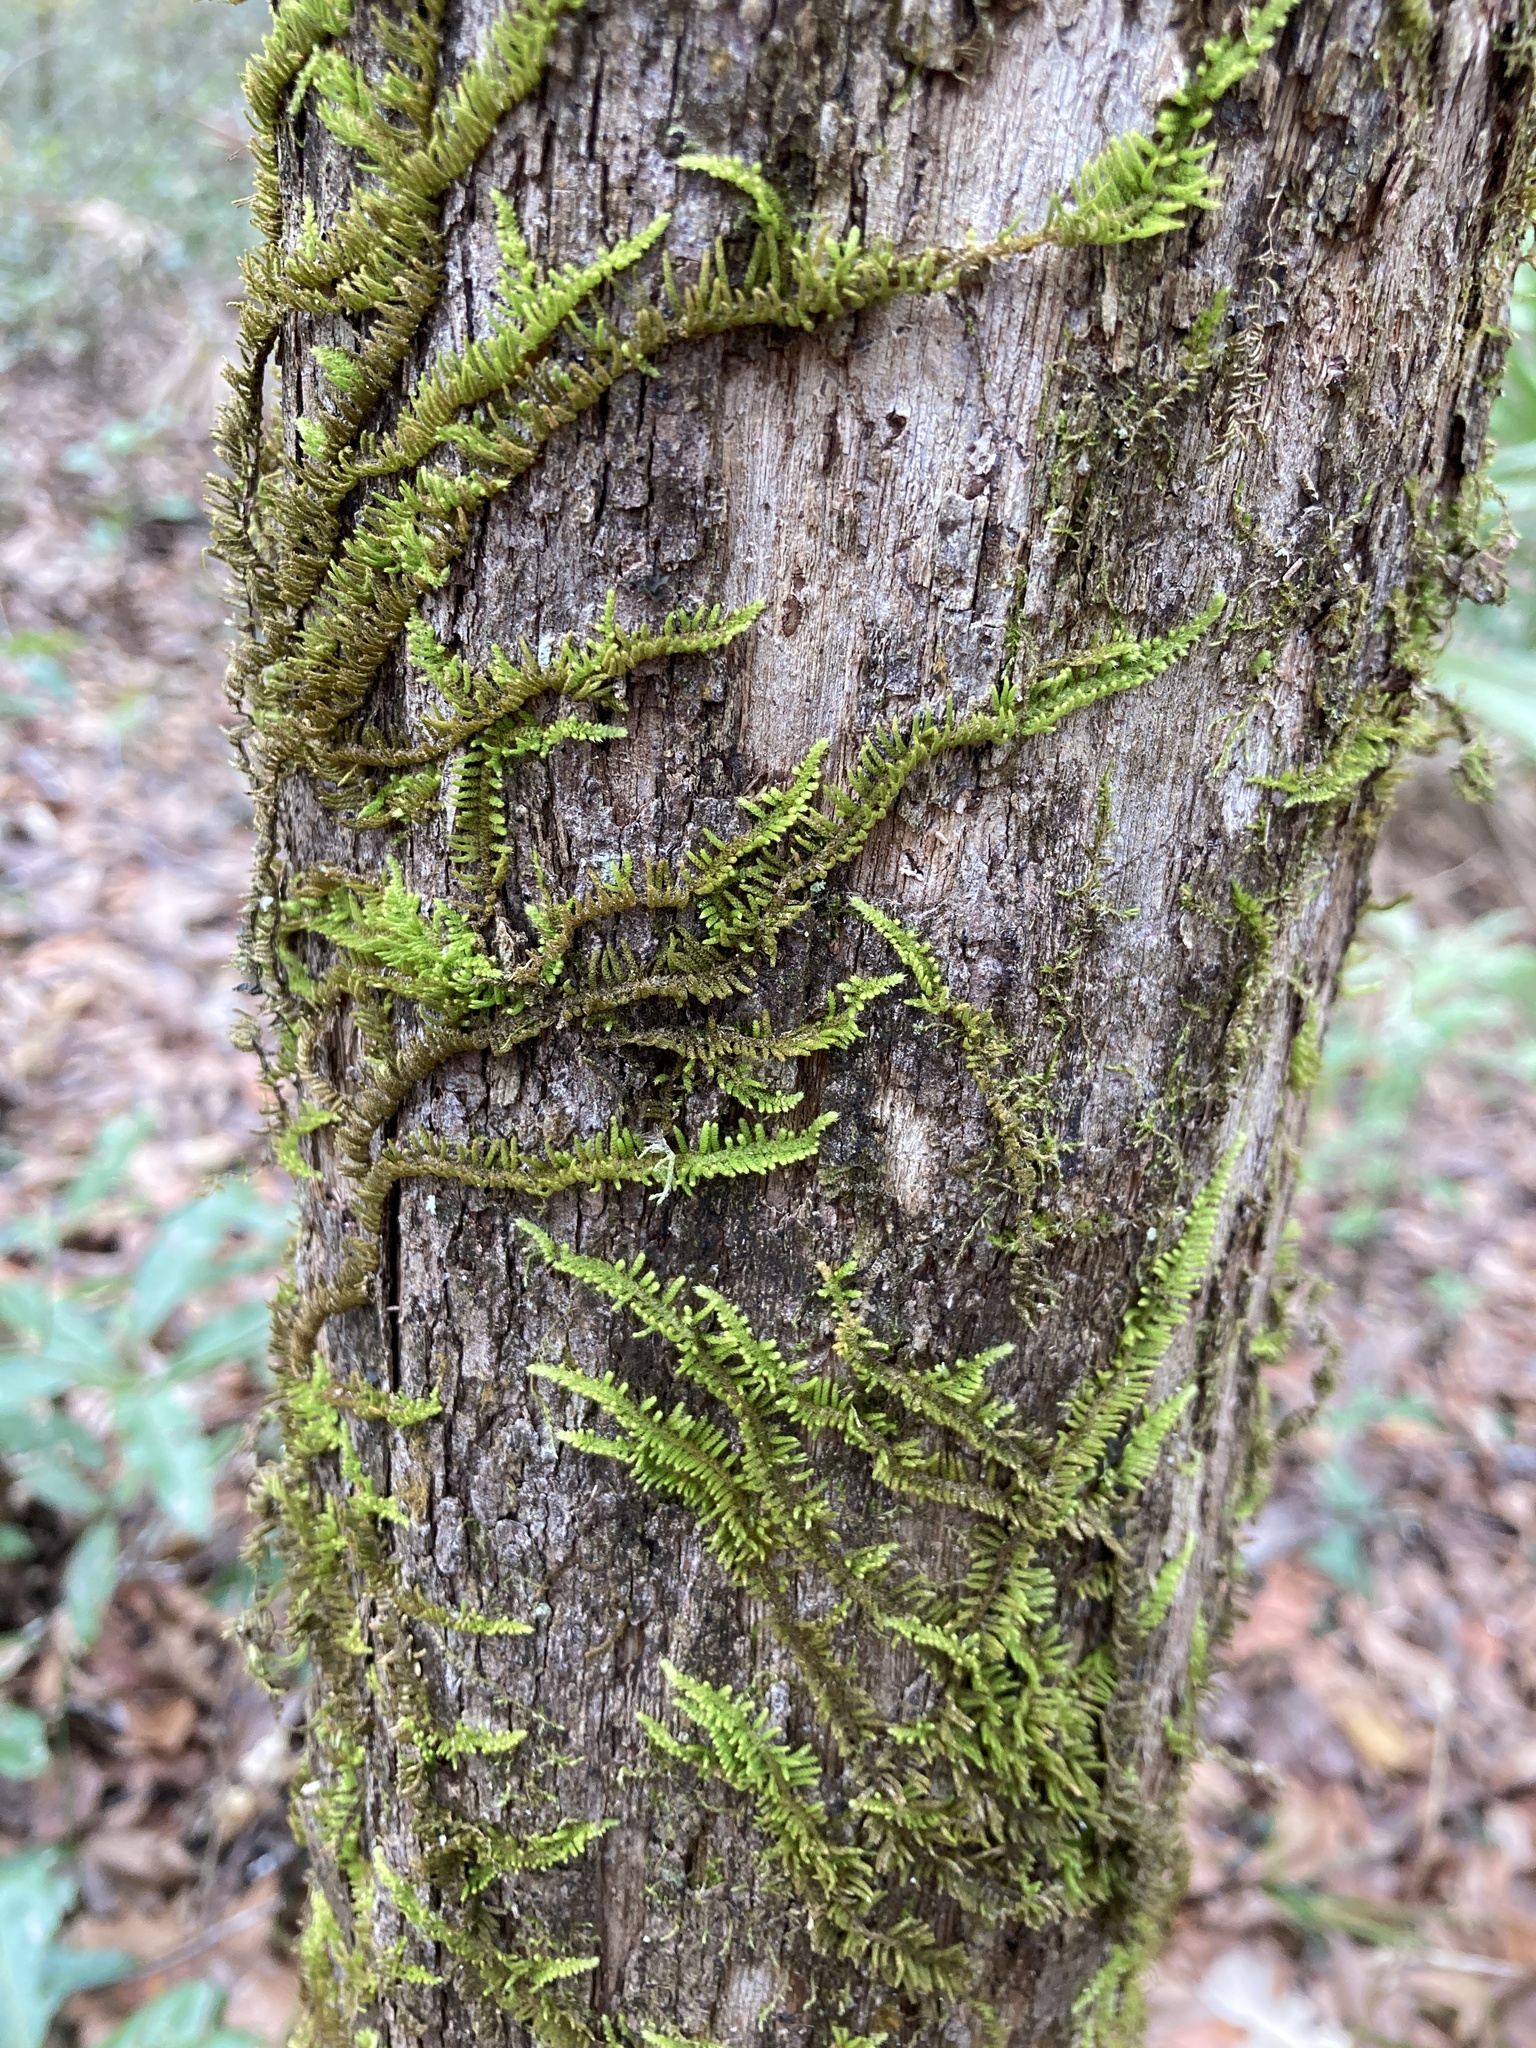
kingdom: Plantae
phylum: Bryophyta
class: Bryopsida
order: Hypnales
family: Theliaceae
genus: Thelia
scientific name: Thelia hirtella
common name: Common thelia
